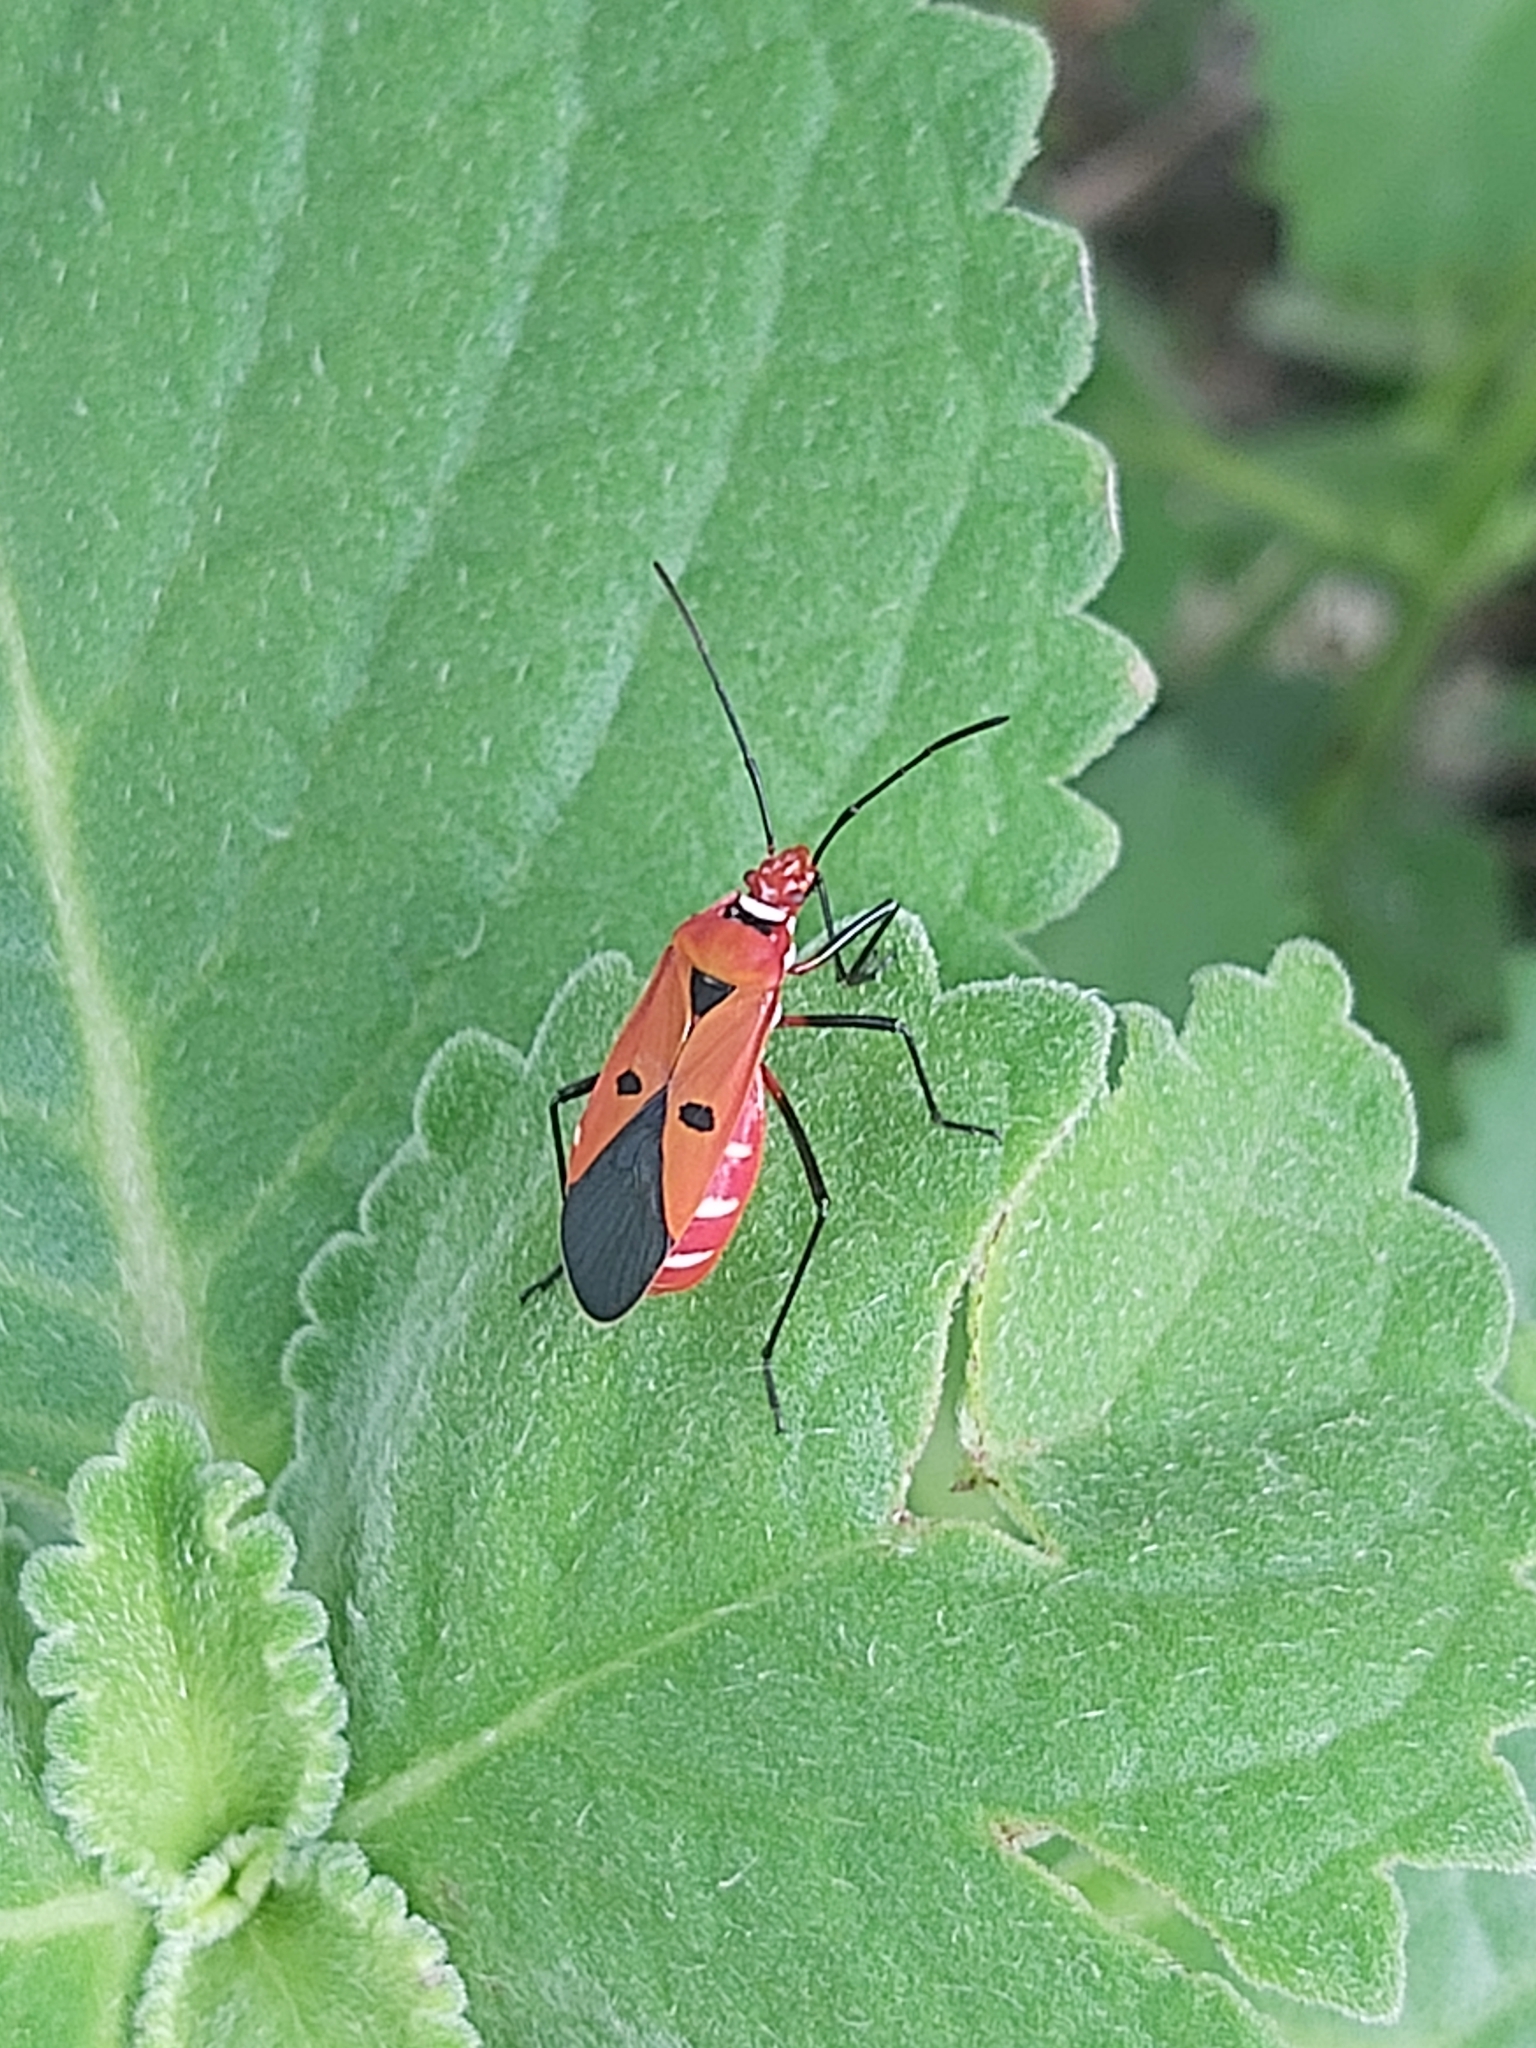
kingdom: Animalia
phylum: Arthropoda
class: Insecta
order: Hemiptera
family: Pyrrhocoridae
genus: Dysdercus
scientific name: Dysdercus cingulatus
